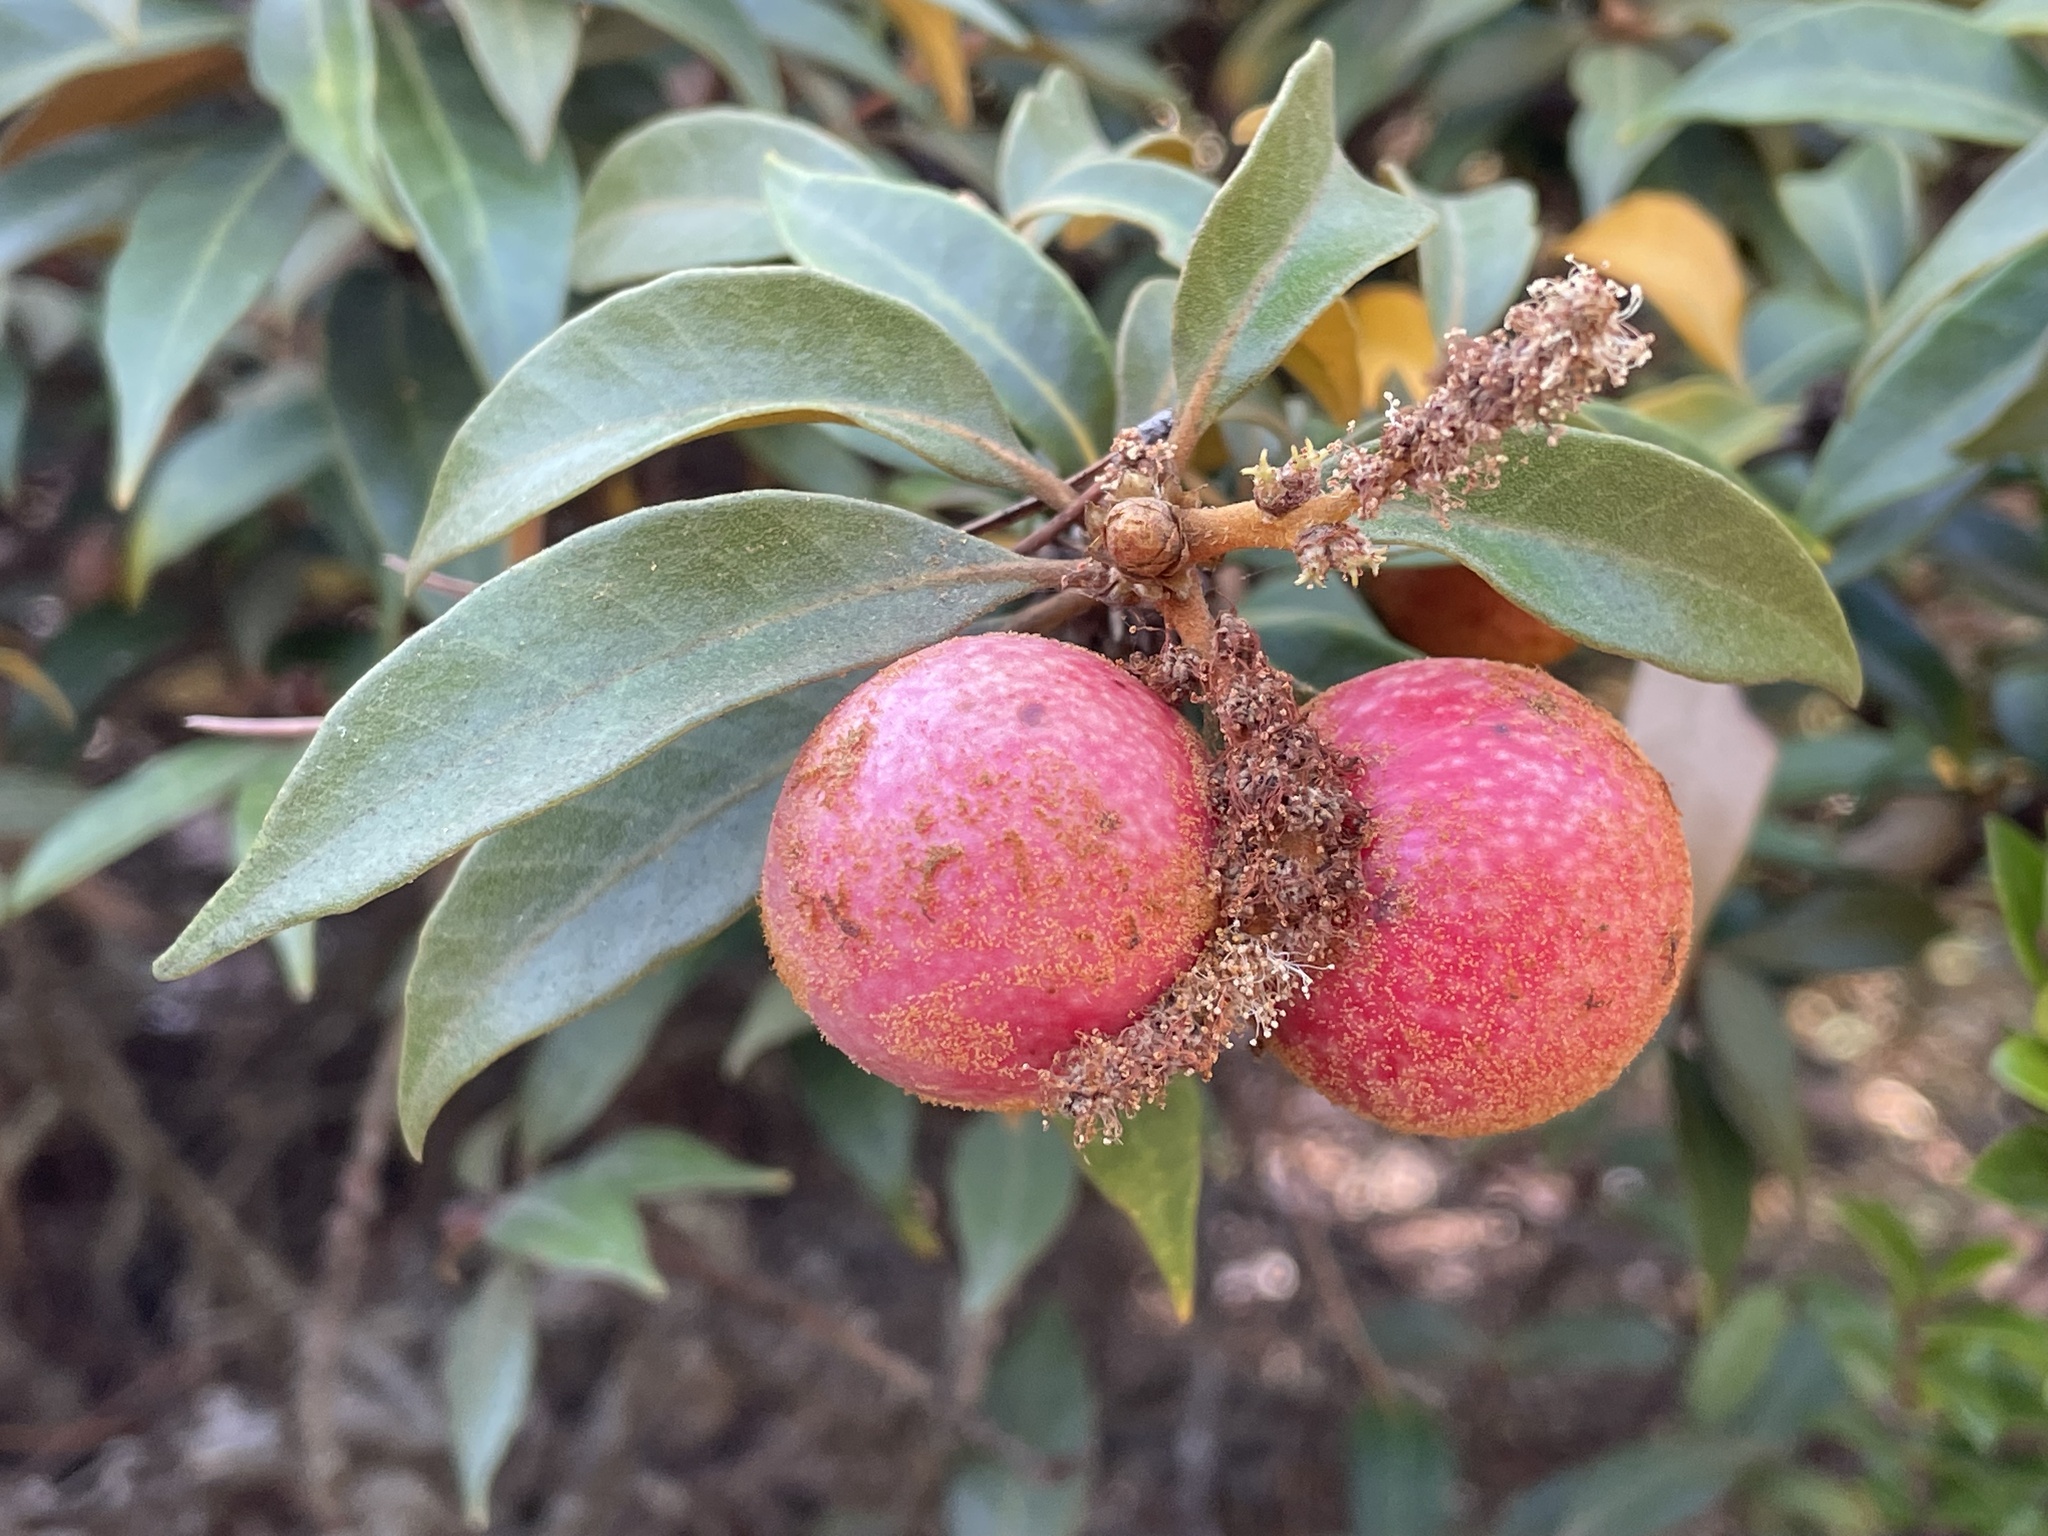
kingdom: Animalia
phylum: Arthropoda
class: Insecta
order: Hymenoptera
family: Cynipidae
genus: Synergus
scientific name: Synergus castanopsidis
